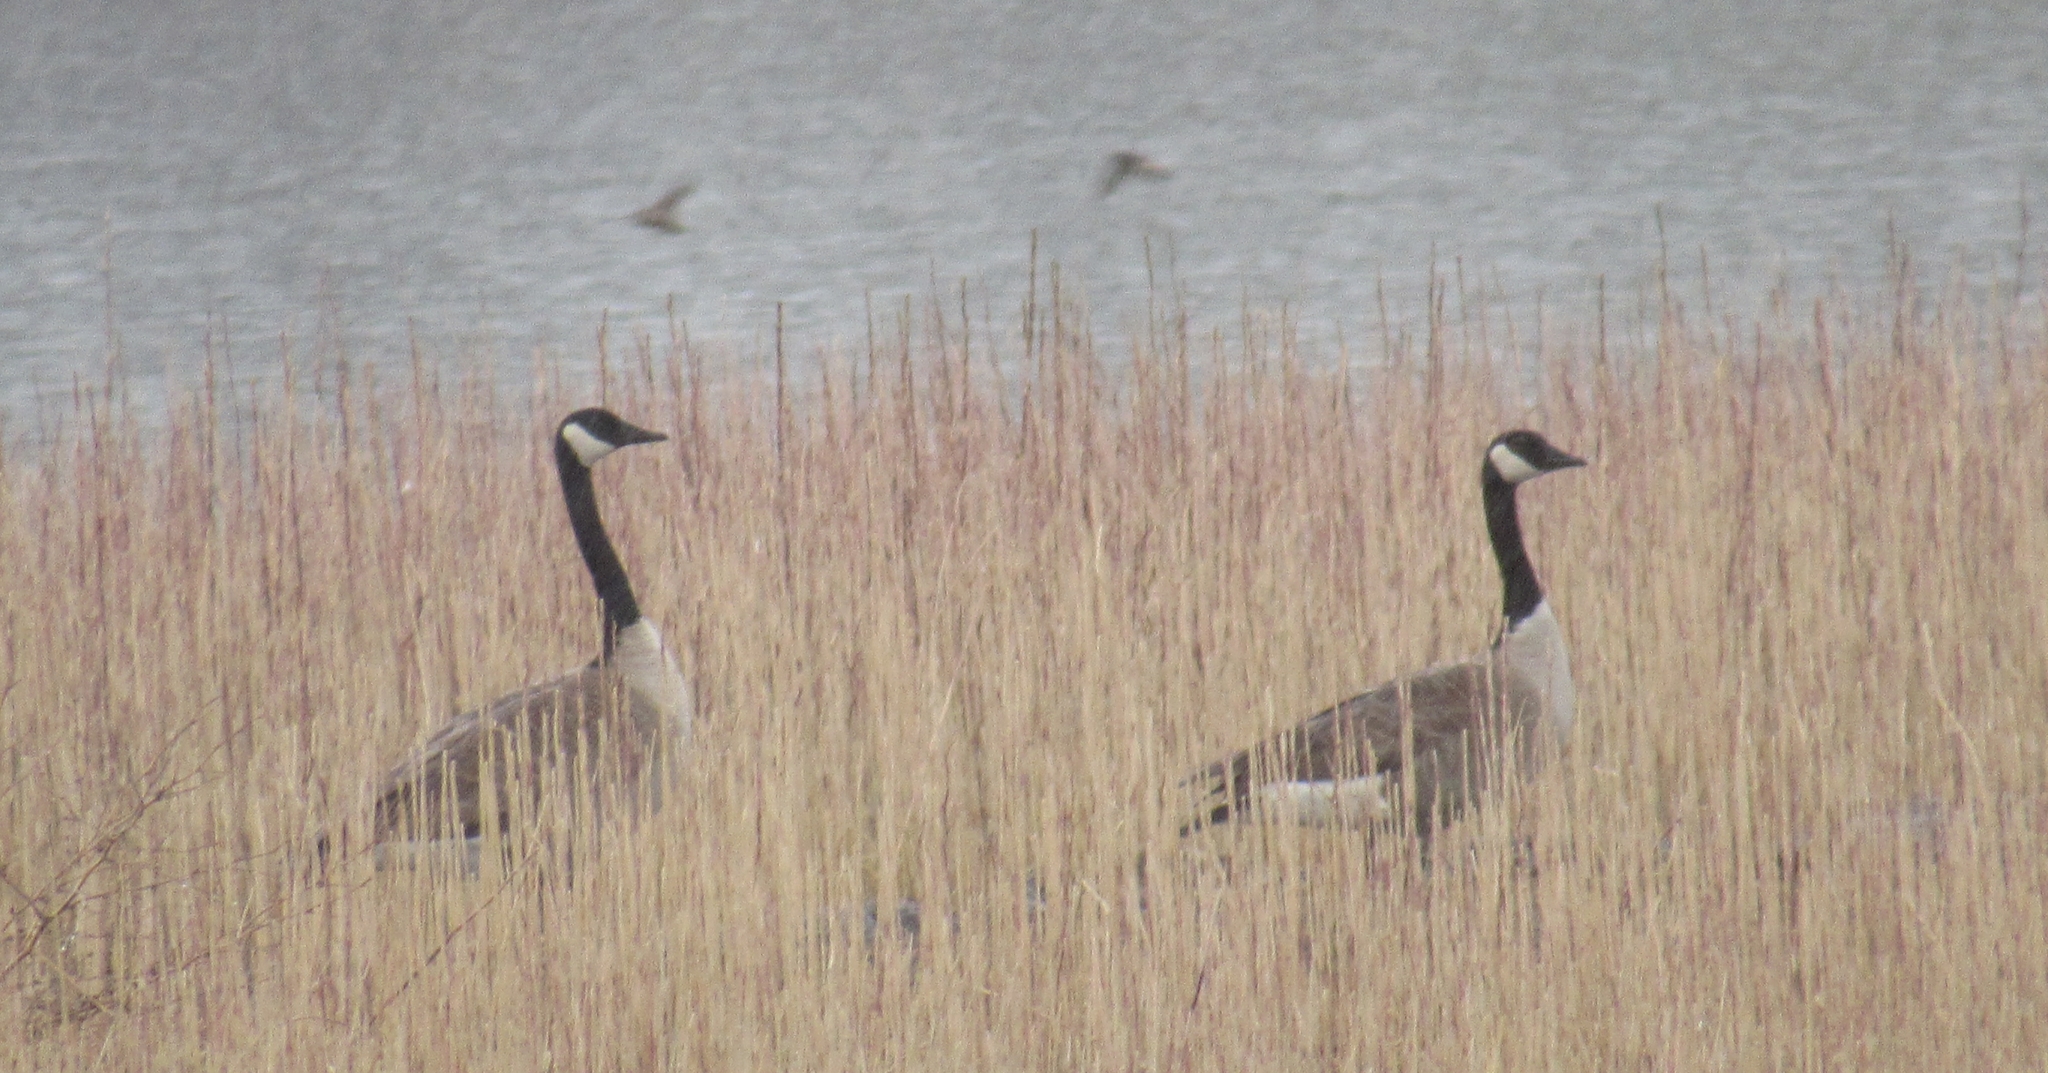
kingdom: Animalia
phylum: Chordata
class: Aves
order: Anseriformes
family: Anatidae
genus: Branta
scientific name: Branta canadensis
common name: Canada goose
